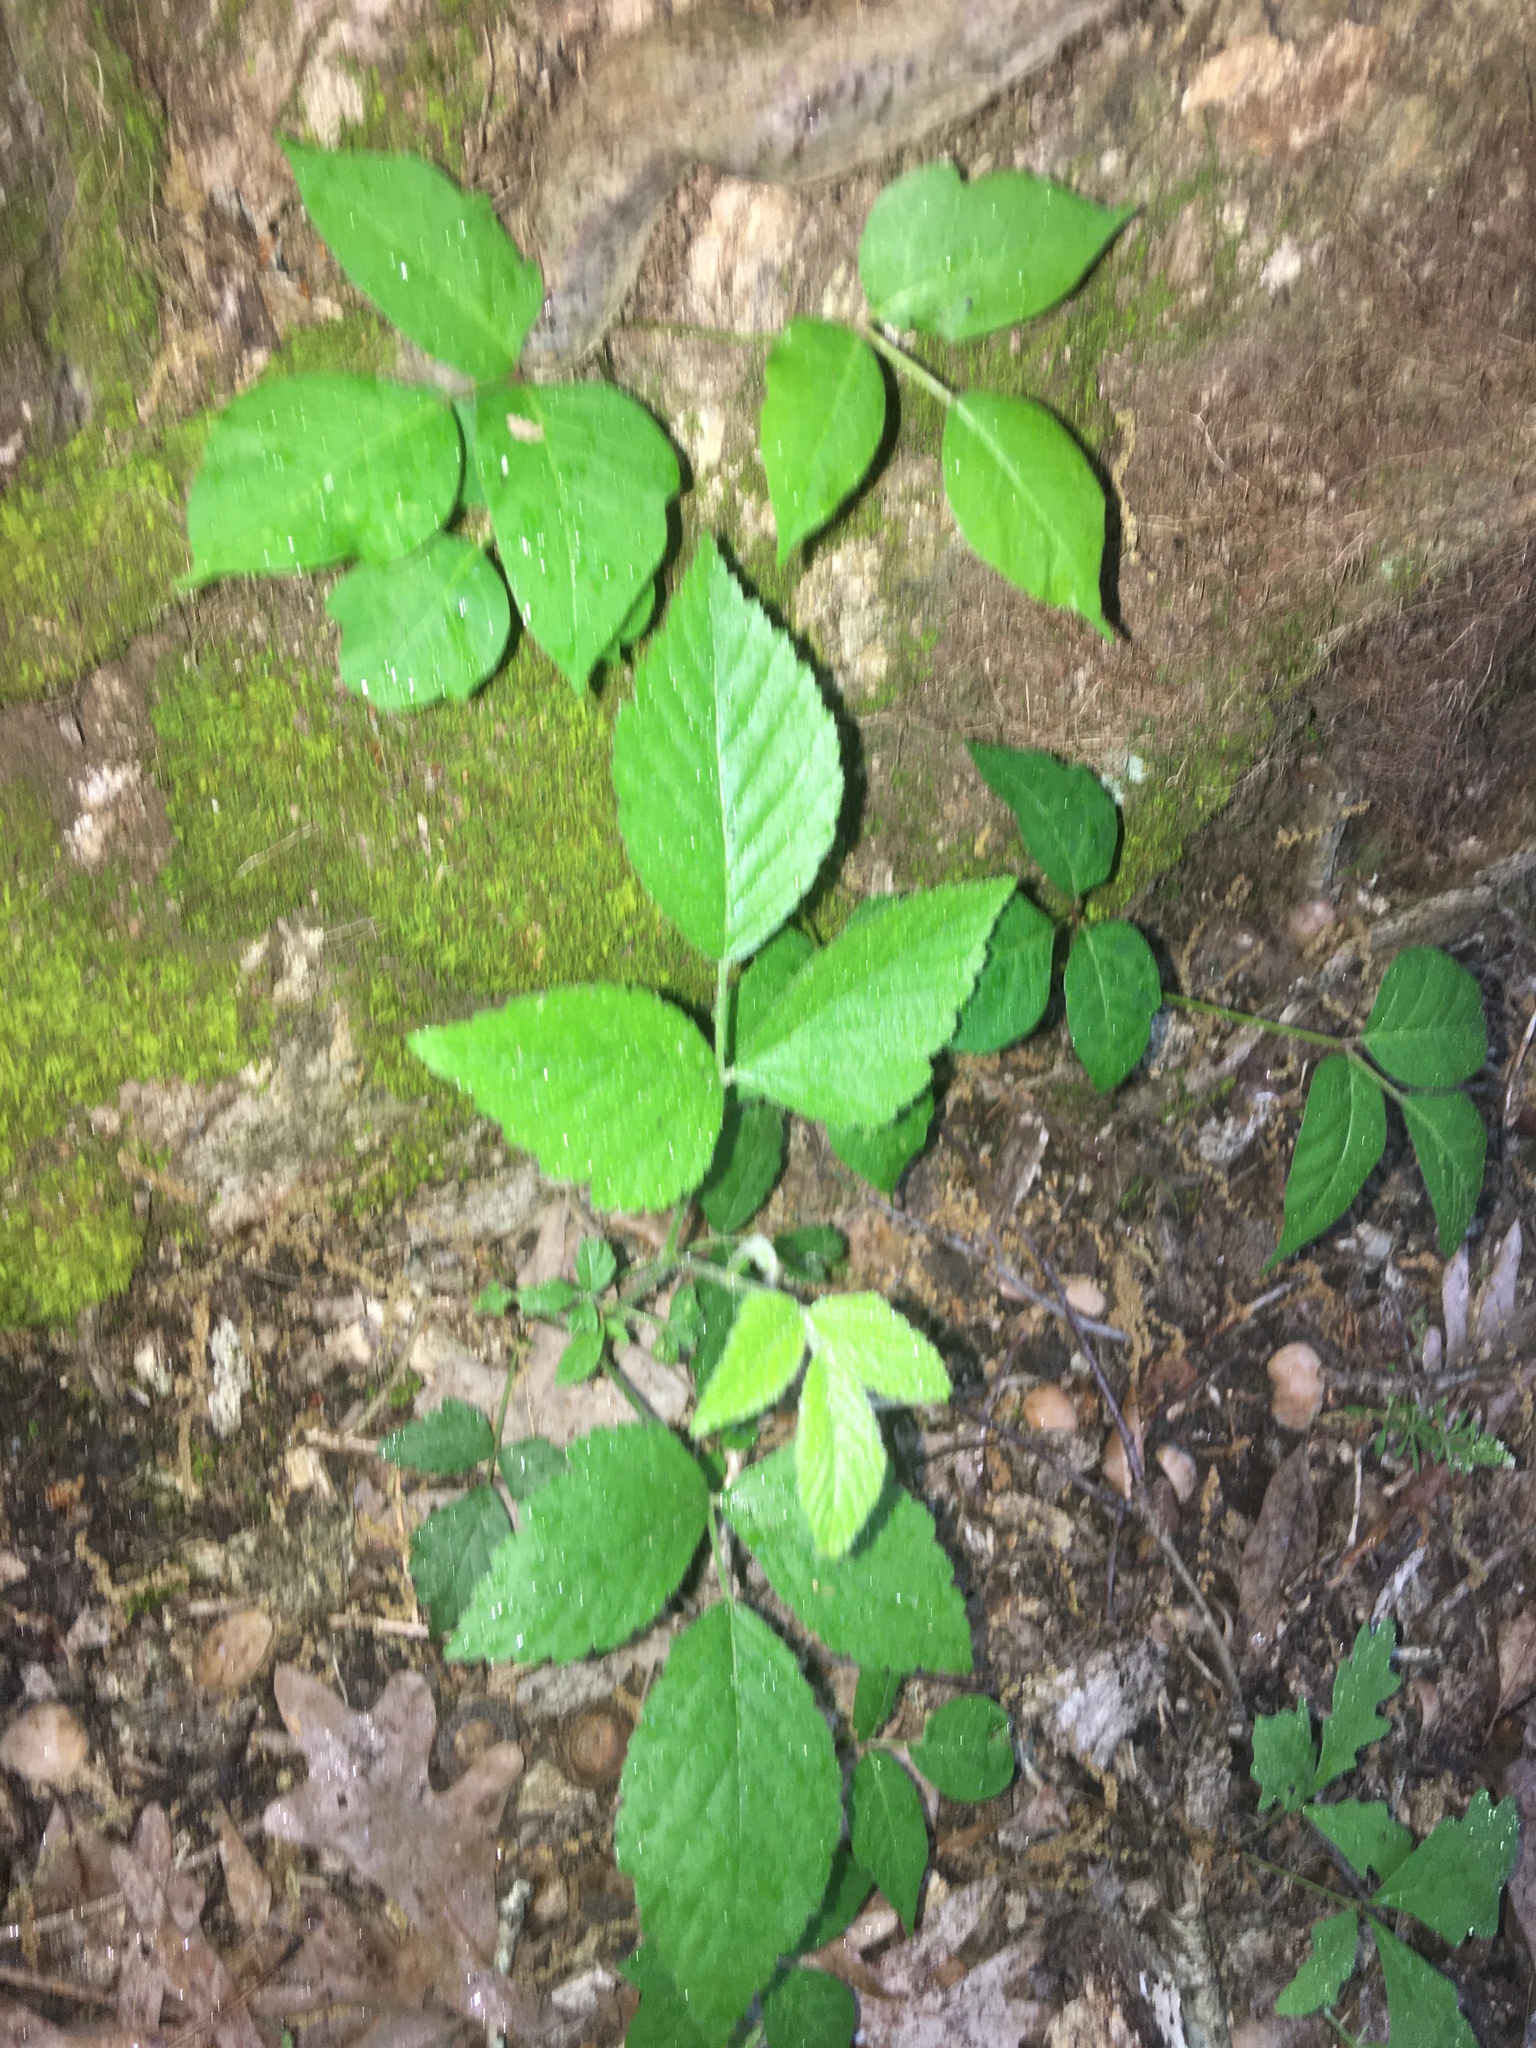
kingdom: Plantae
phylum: Tracheophyta
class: Magnoliopsida
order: Sapindales
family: Anacardiaceae
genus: Toxicodendron
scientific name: Toxicodendron radicans
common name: Poison ivy
